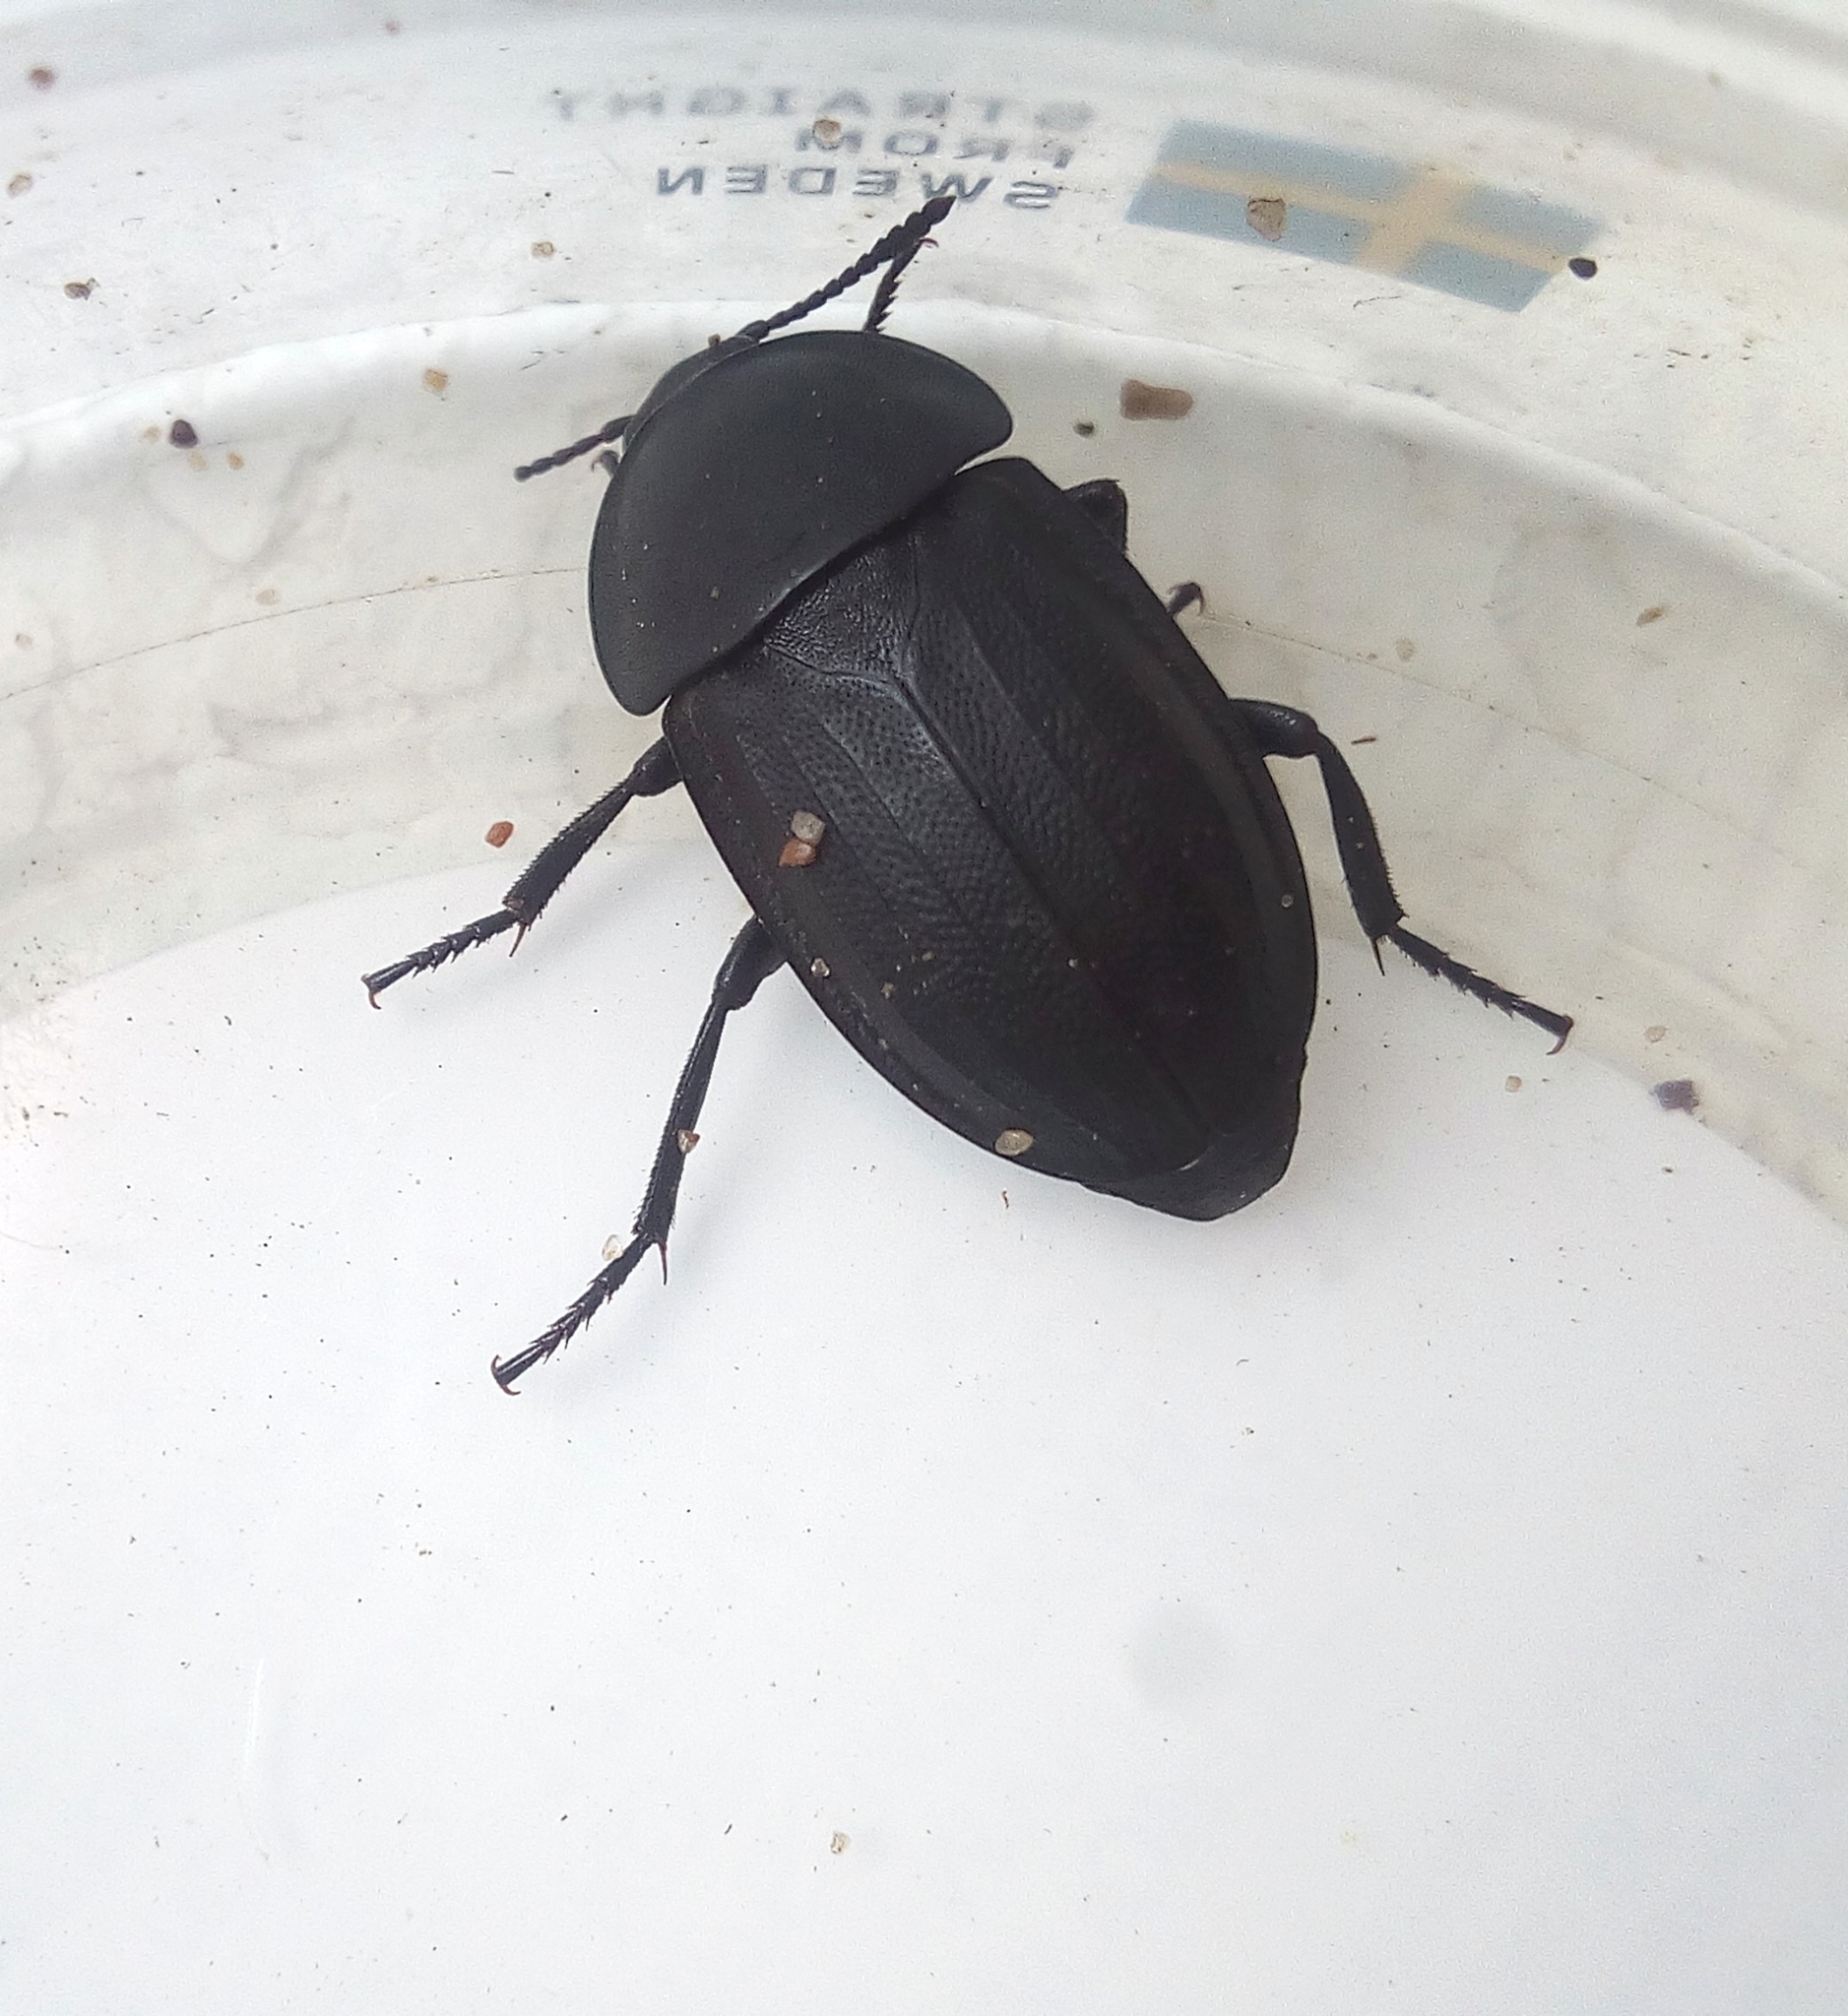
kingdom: Animalia
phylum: Arthropoda
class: Insecta
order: Coleoptera
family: Staphylinidae
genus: Silpha
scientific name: Silpha obscura
